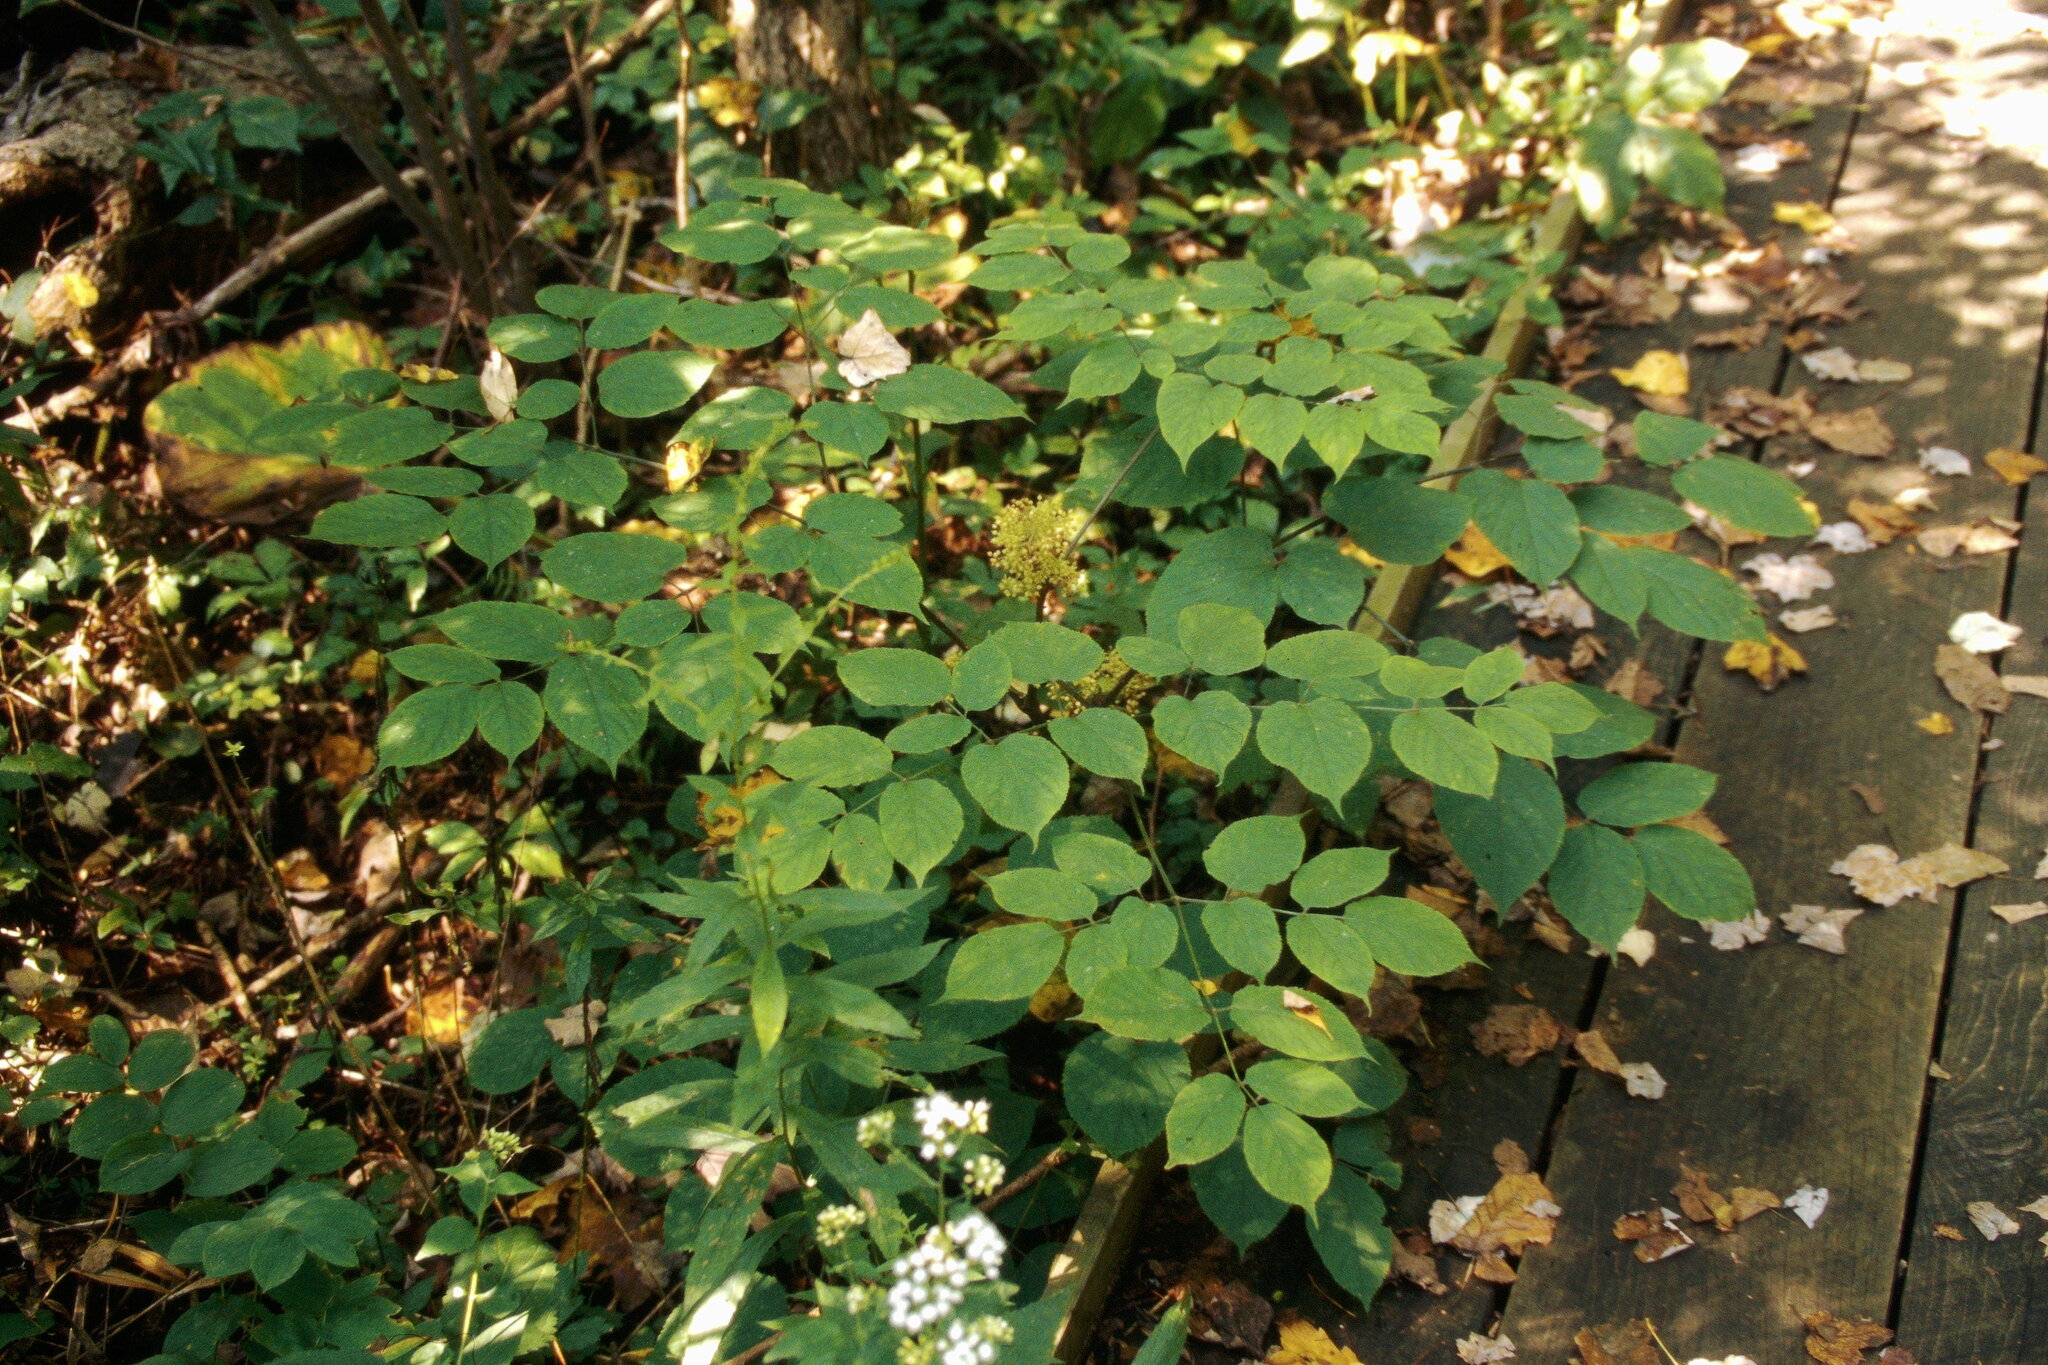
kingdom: Plantae
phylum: Tracheophyta
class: Magnoliopsida
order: Apiales
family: Araliaceae
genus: Aralia
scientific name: Aralia racemosa
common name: American-spikenard
